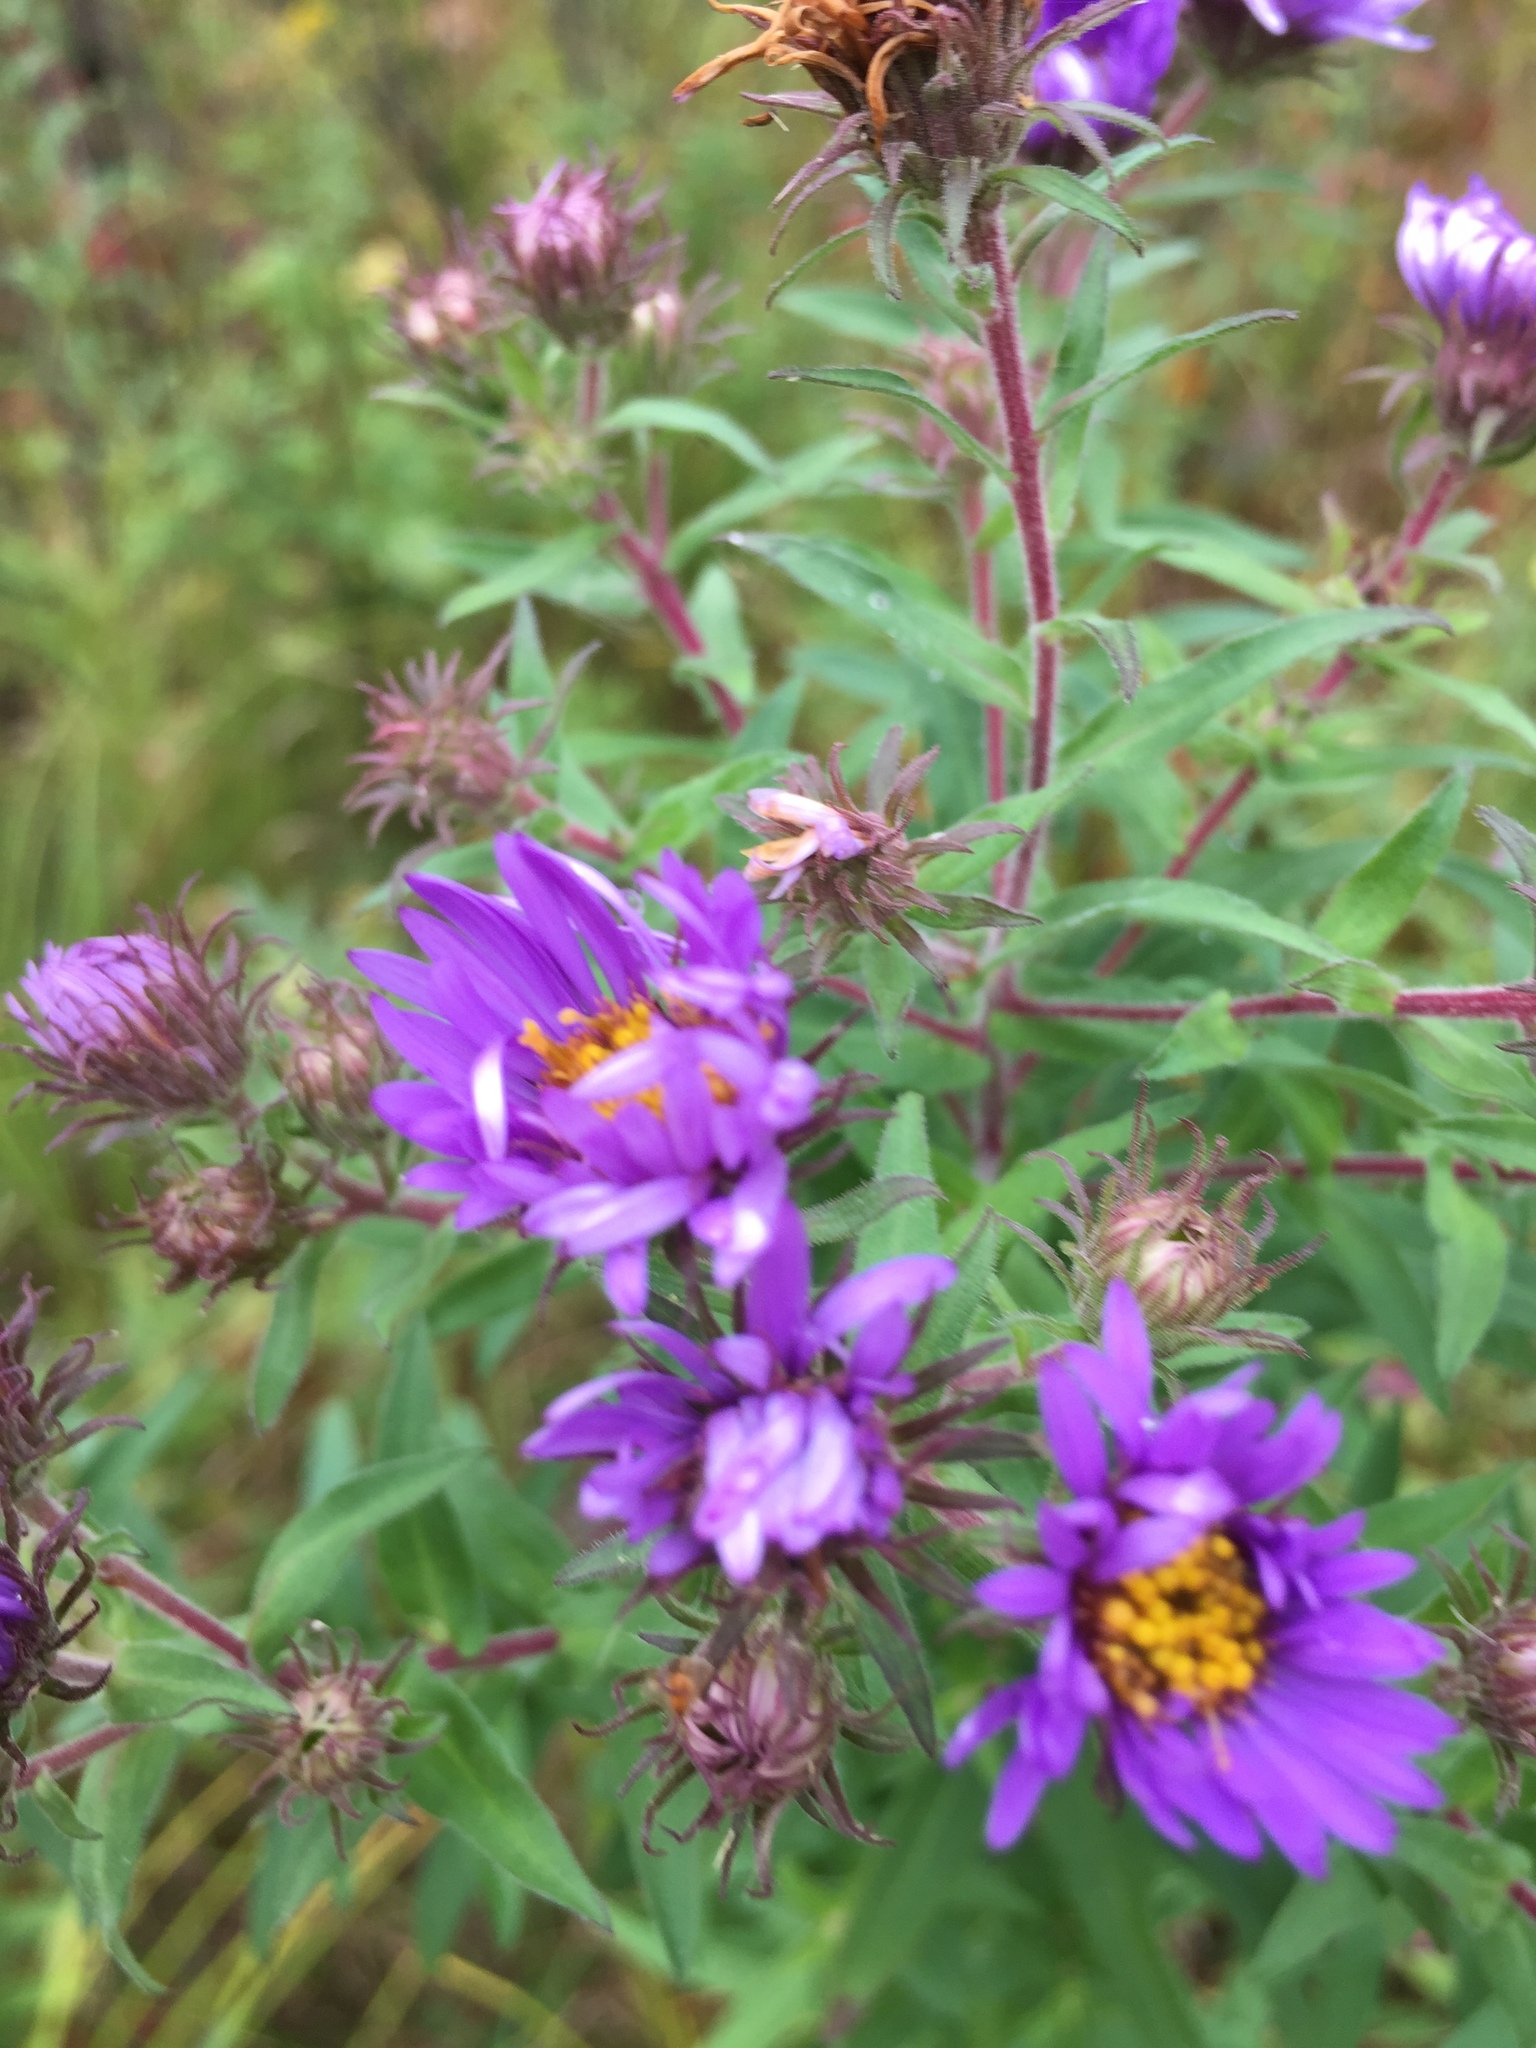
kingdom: Plantae
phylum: Tracheophyta
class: Magnoliopsida
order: Asterales
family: Asteraceae
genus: Symphyotrichum
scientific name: Symphyotrichum novae-angliae
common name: Michaelmas daisy
